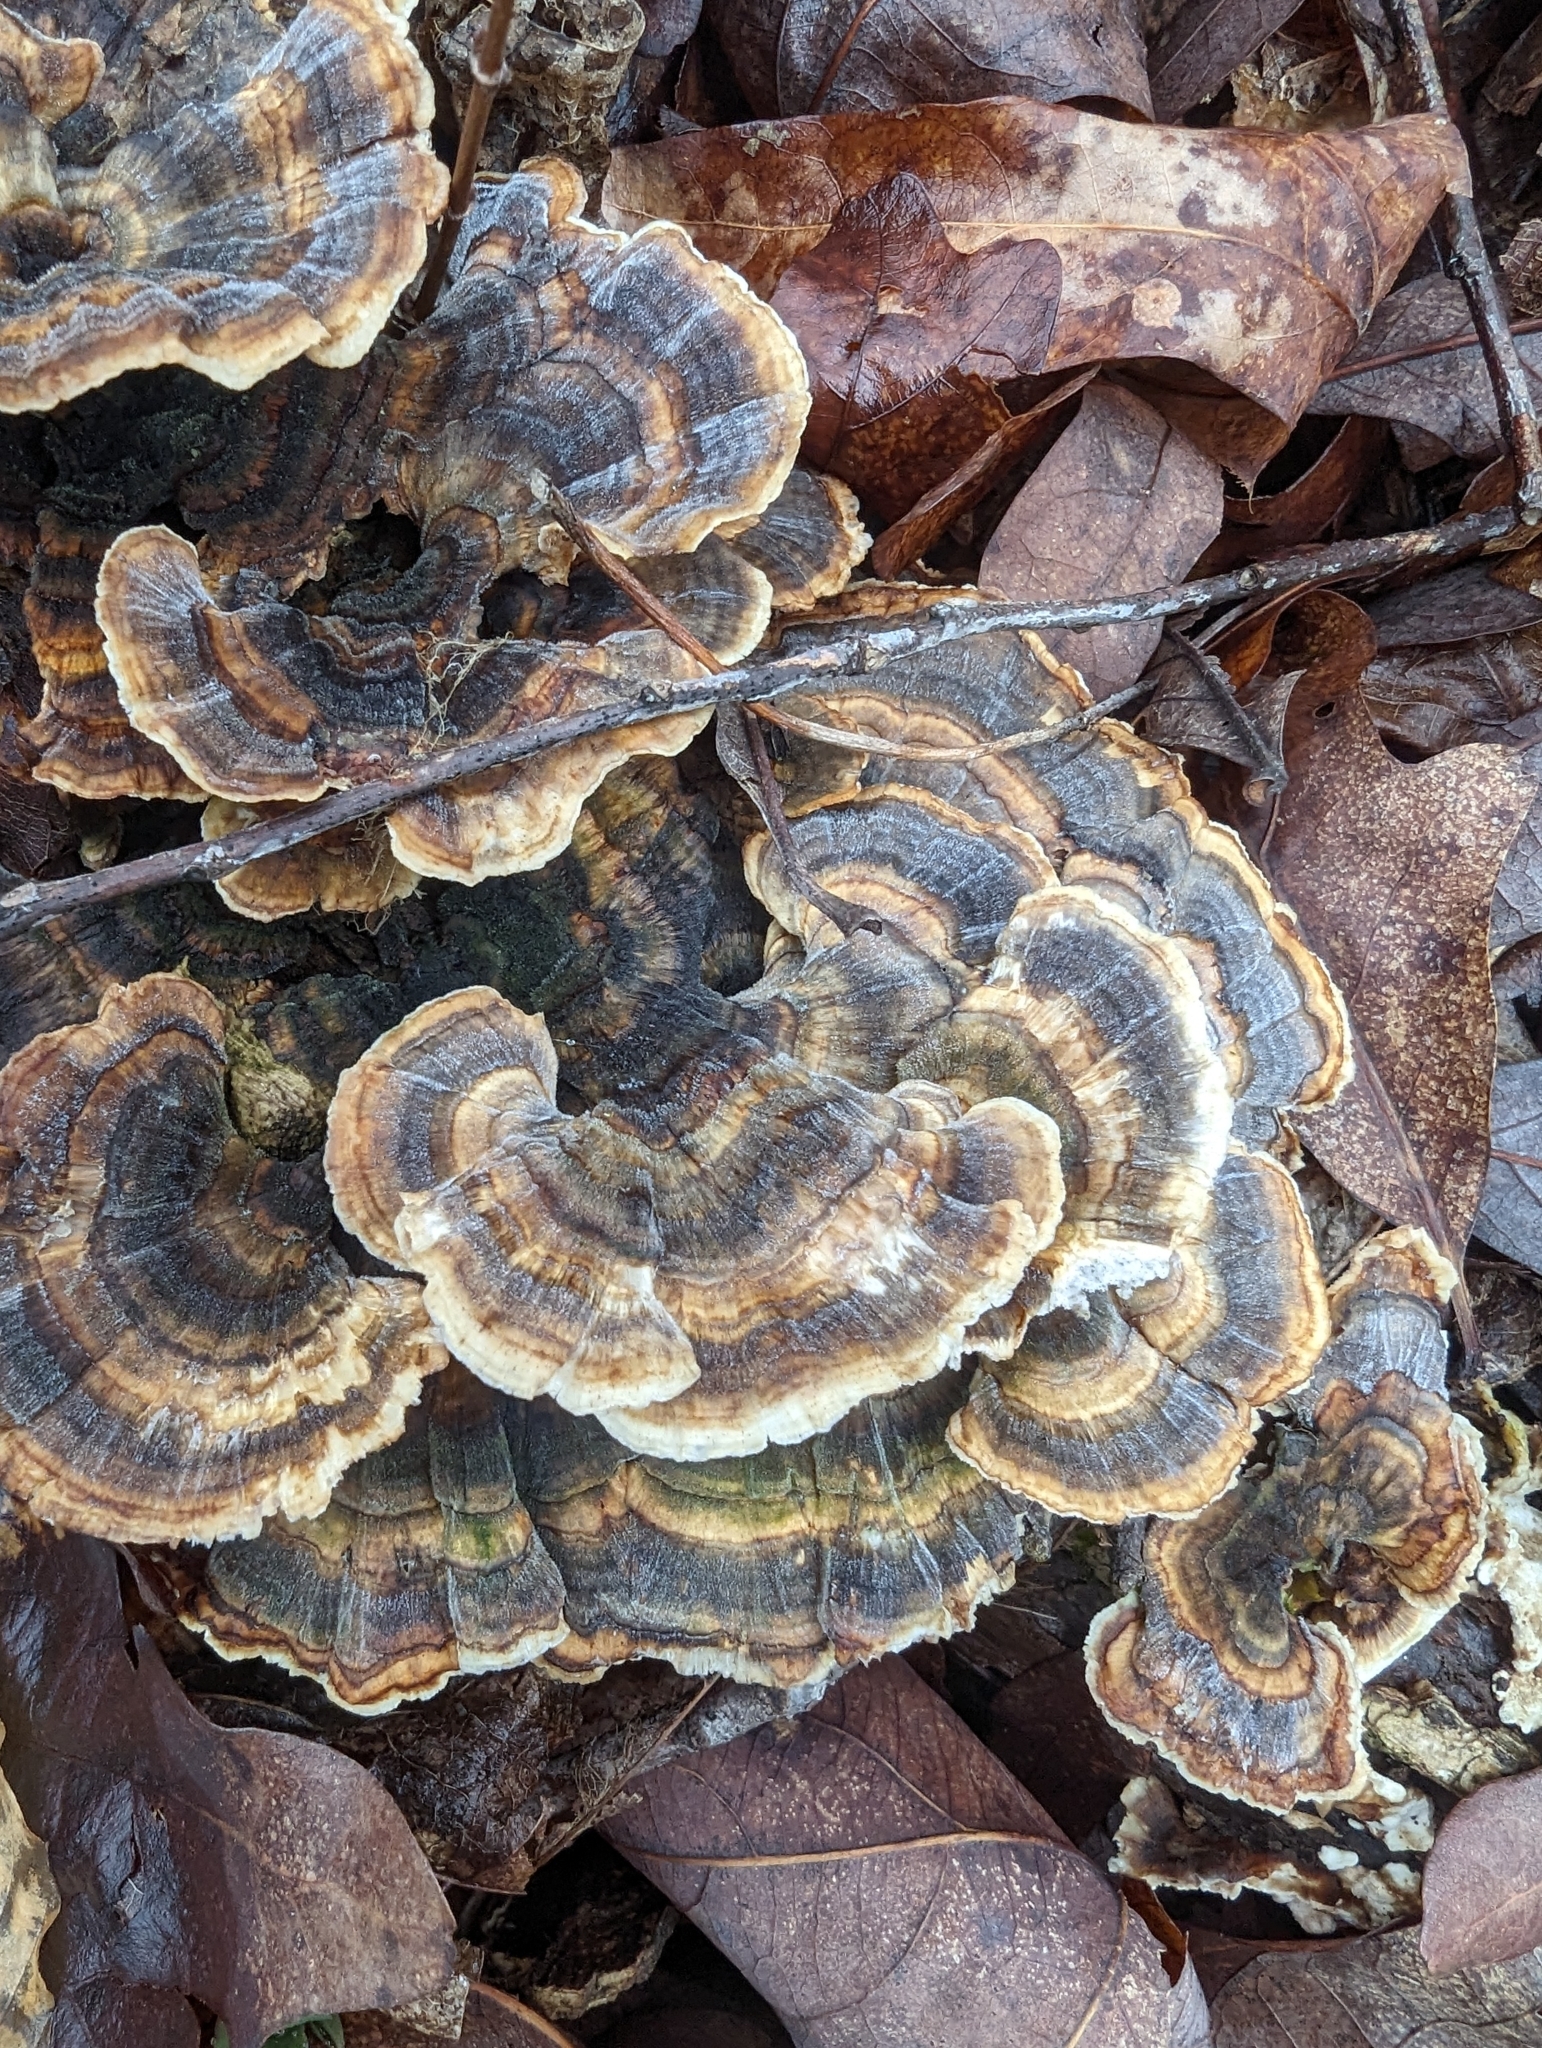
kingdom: Fungi
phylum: Basidiomycota
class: Agaricomycetes
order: Polyporales
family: Polyporaceae
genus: Trametes
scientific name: Trametes versicolor
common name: Turkeytail
